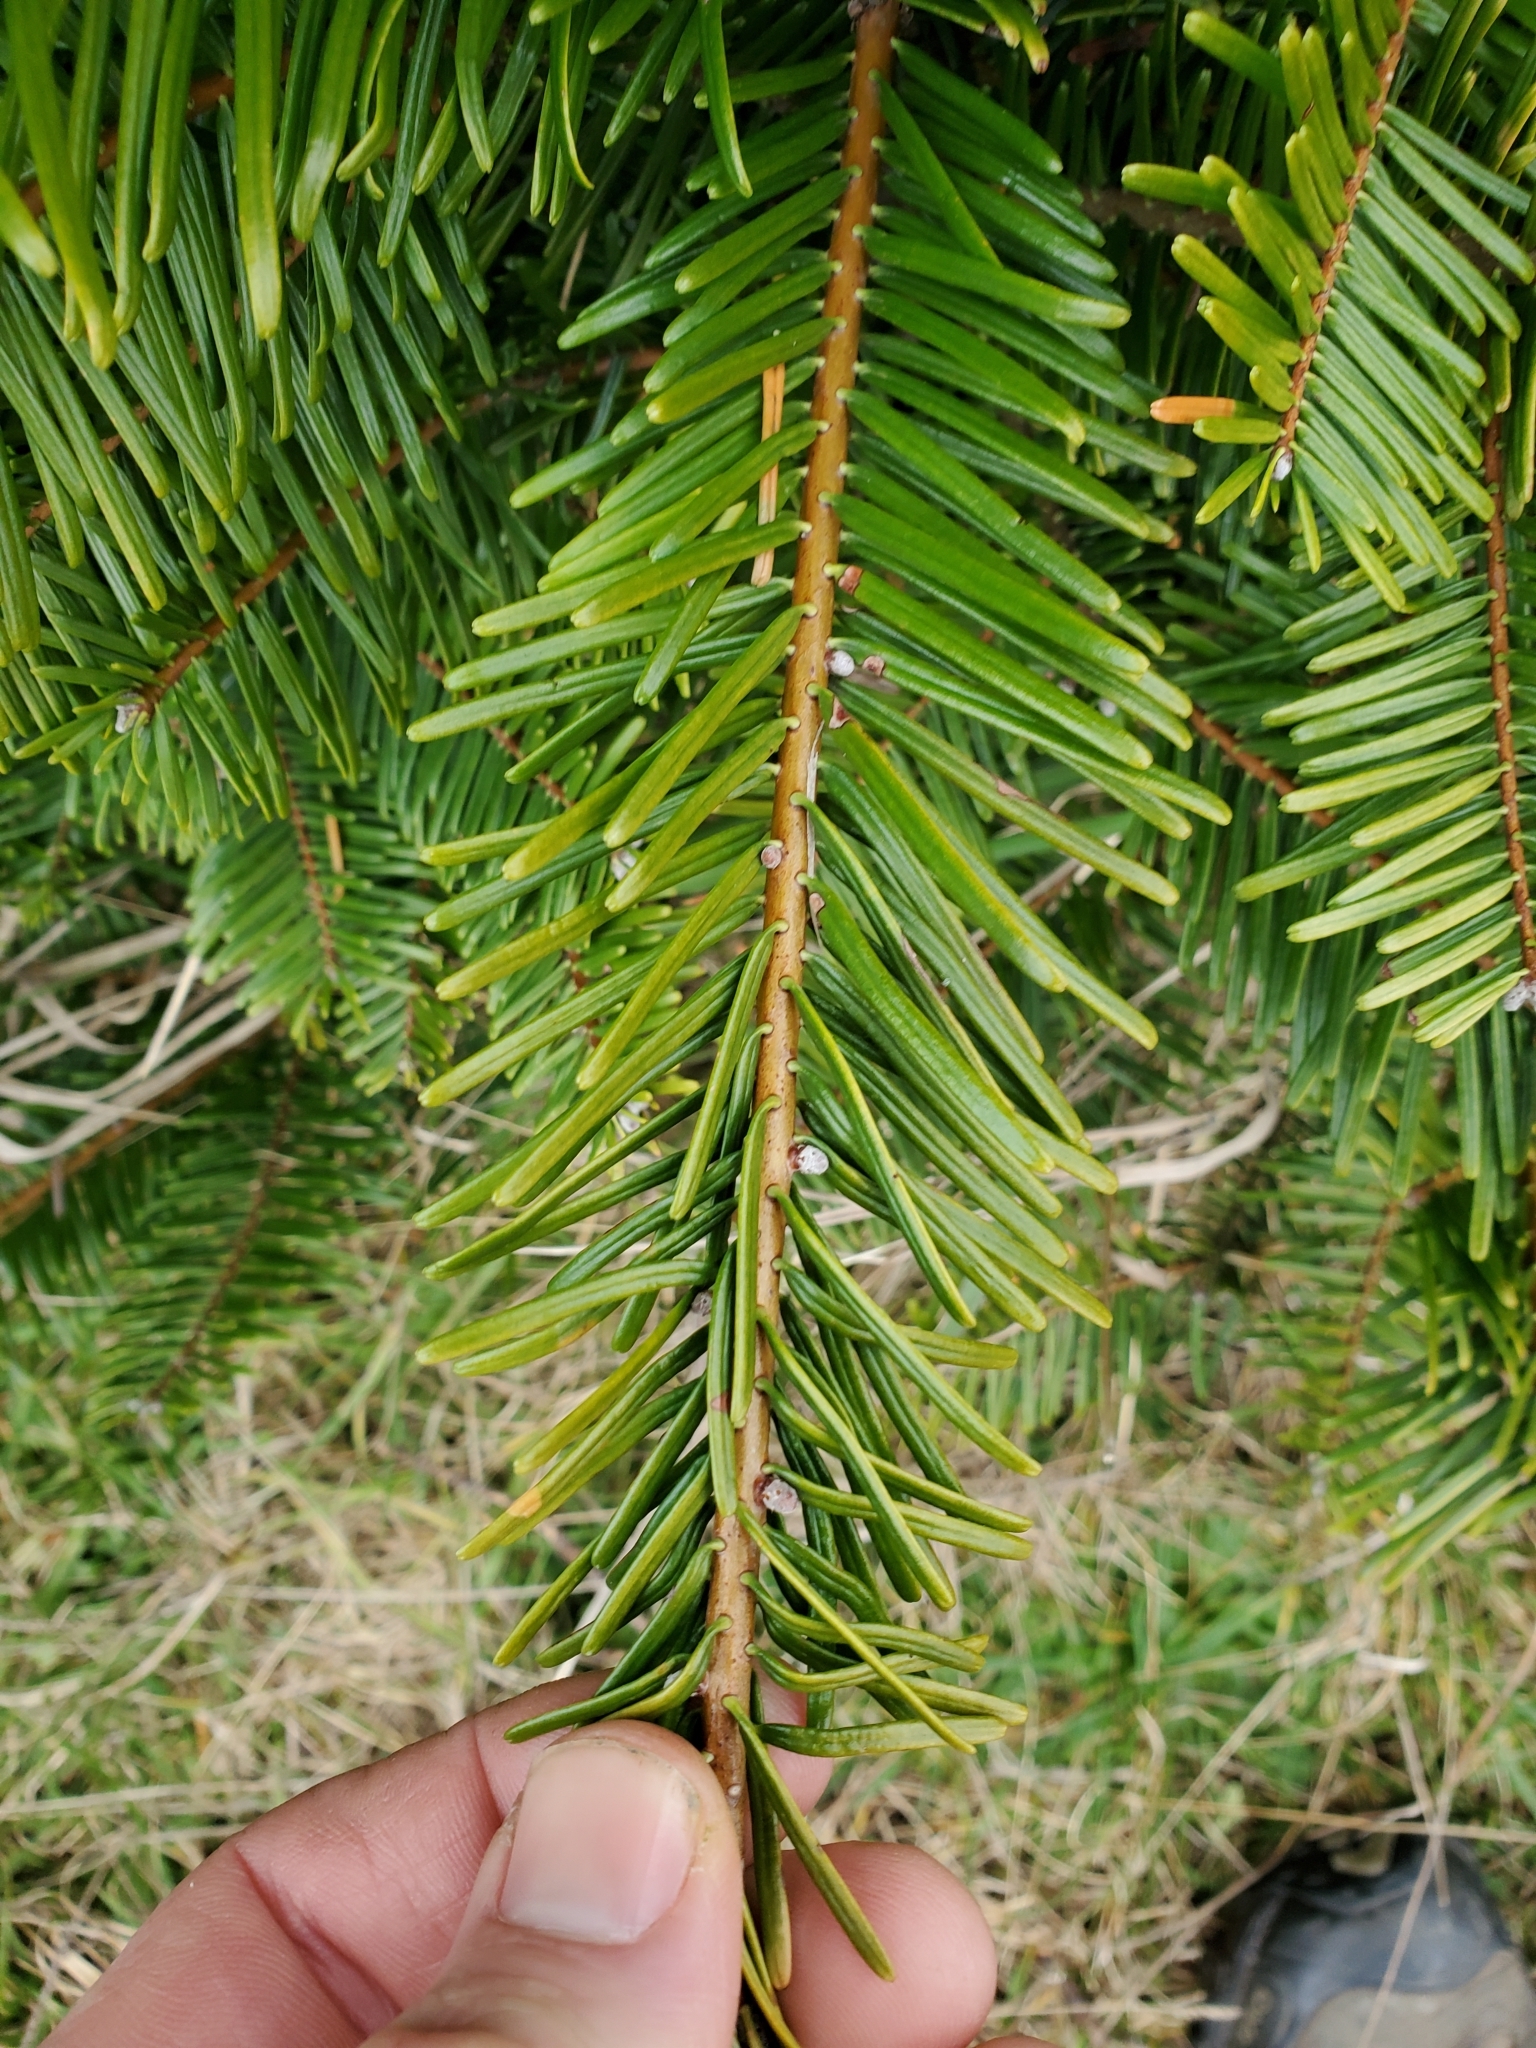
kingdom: Plantae
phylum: Tracheophyta
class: Pinopsida
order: Pinales
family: Pinaceae
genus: Abies
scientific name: Abies grandis
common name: Giant fir
